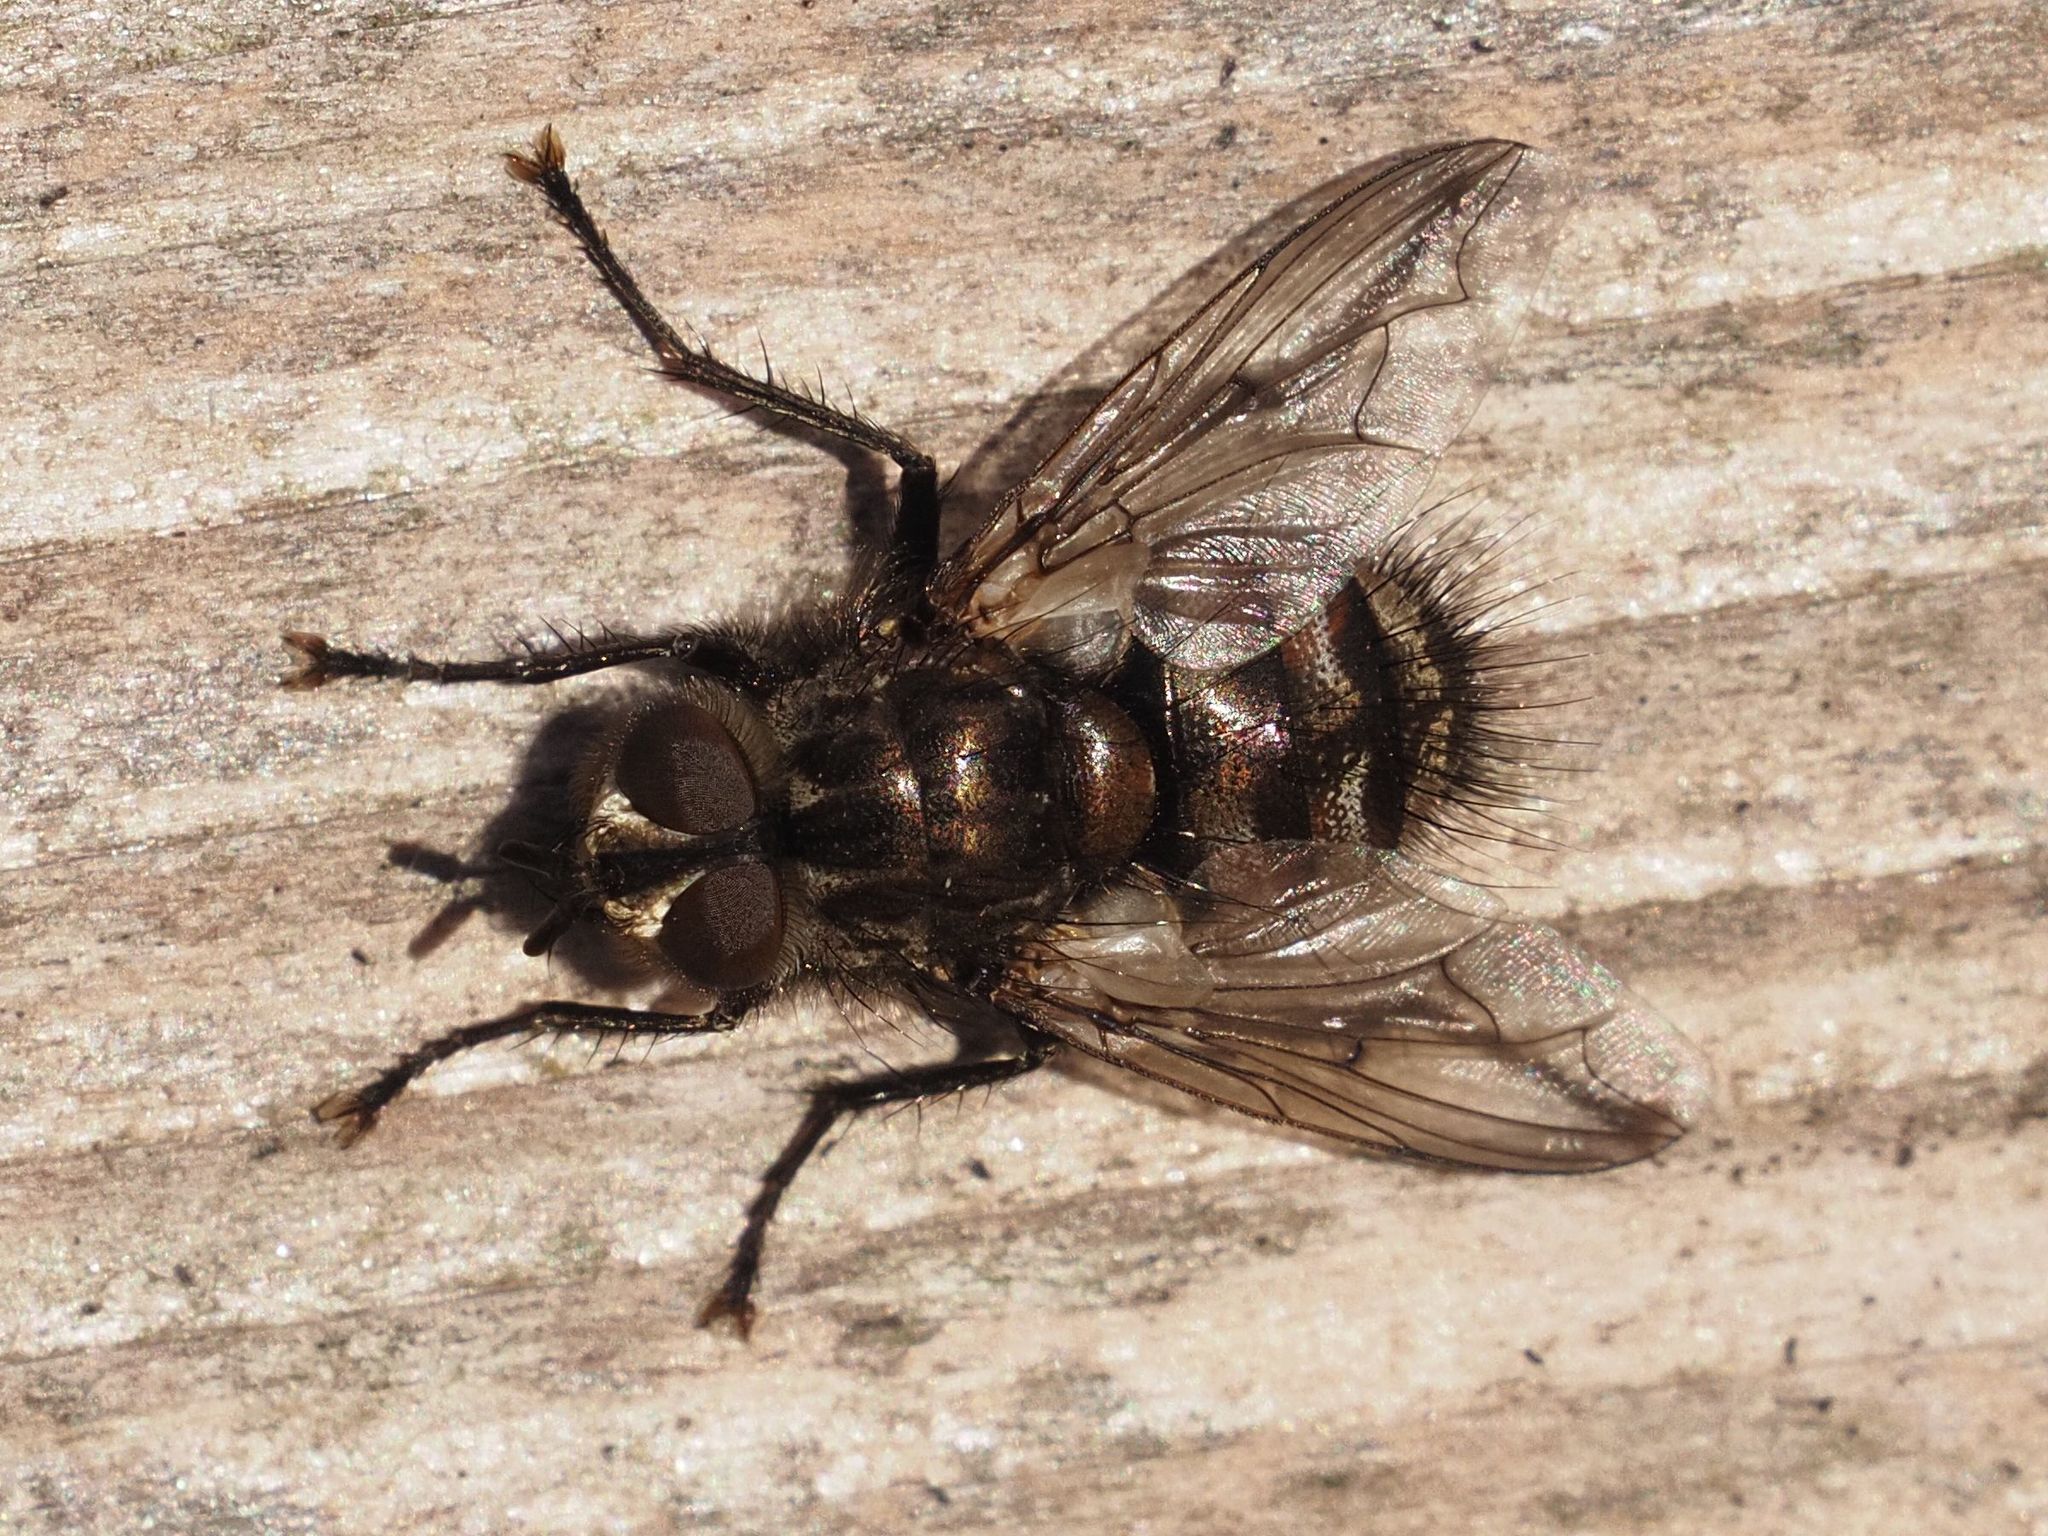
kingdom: Animalia
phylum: Arthropoda
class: Insecta
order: Diptera
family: Tachinidae
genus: Panzeria
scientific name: Panzeria puparum
